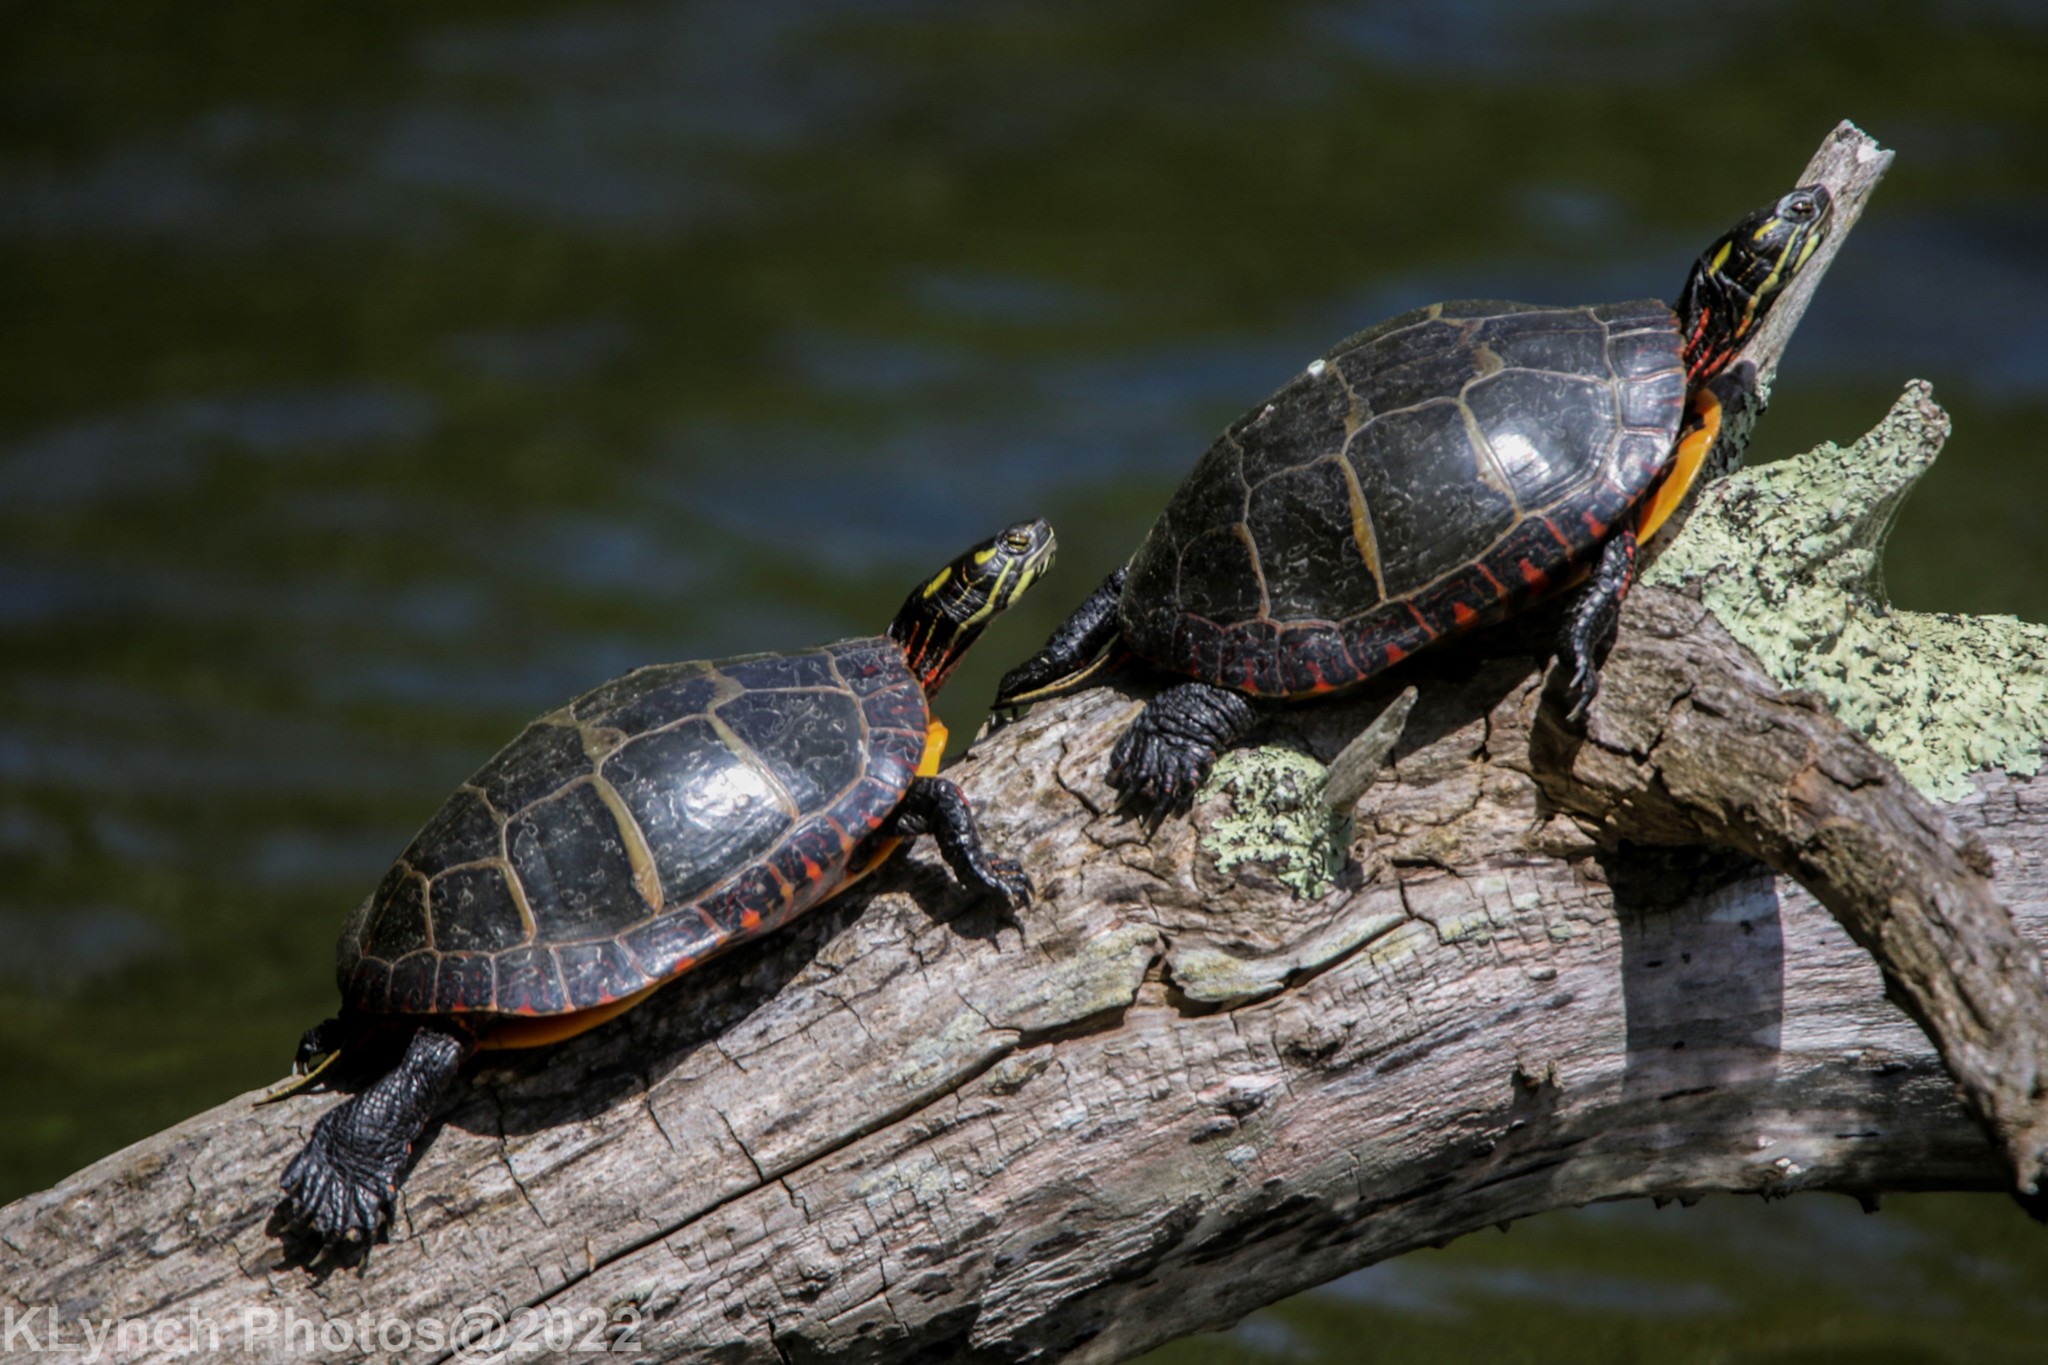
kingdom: Animalia
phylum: Chordata
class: Testudines
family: Emydidae
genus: Chrysemys
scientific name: Chrysemys picta
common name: Painted turtle
